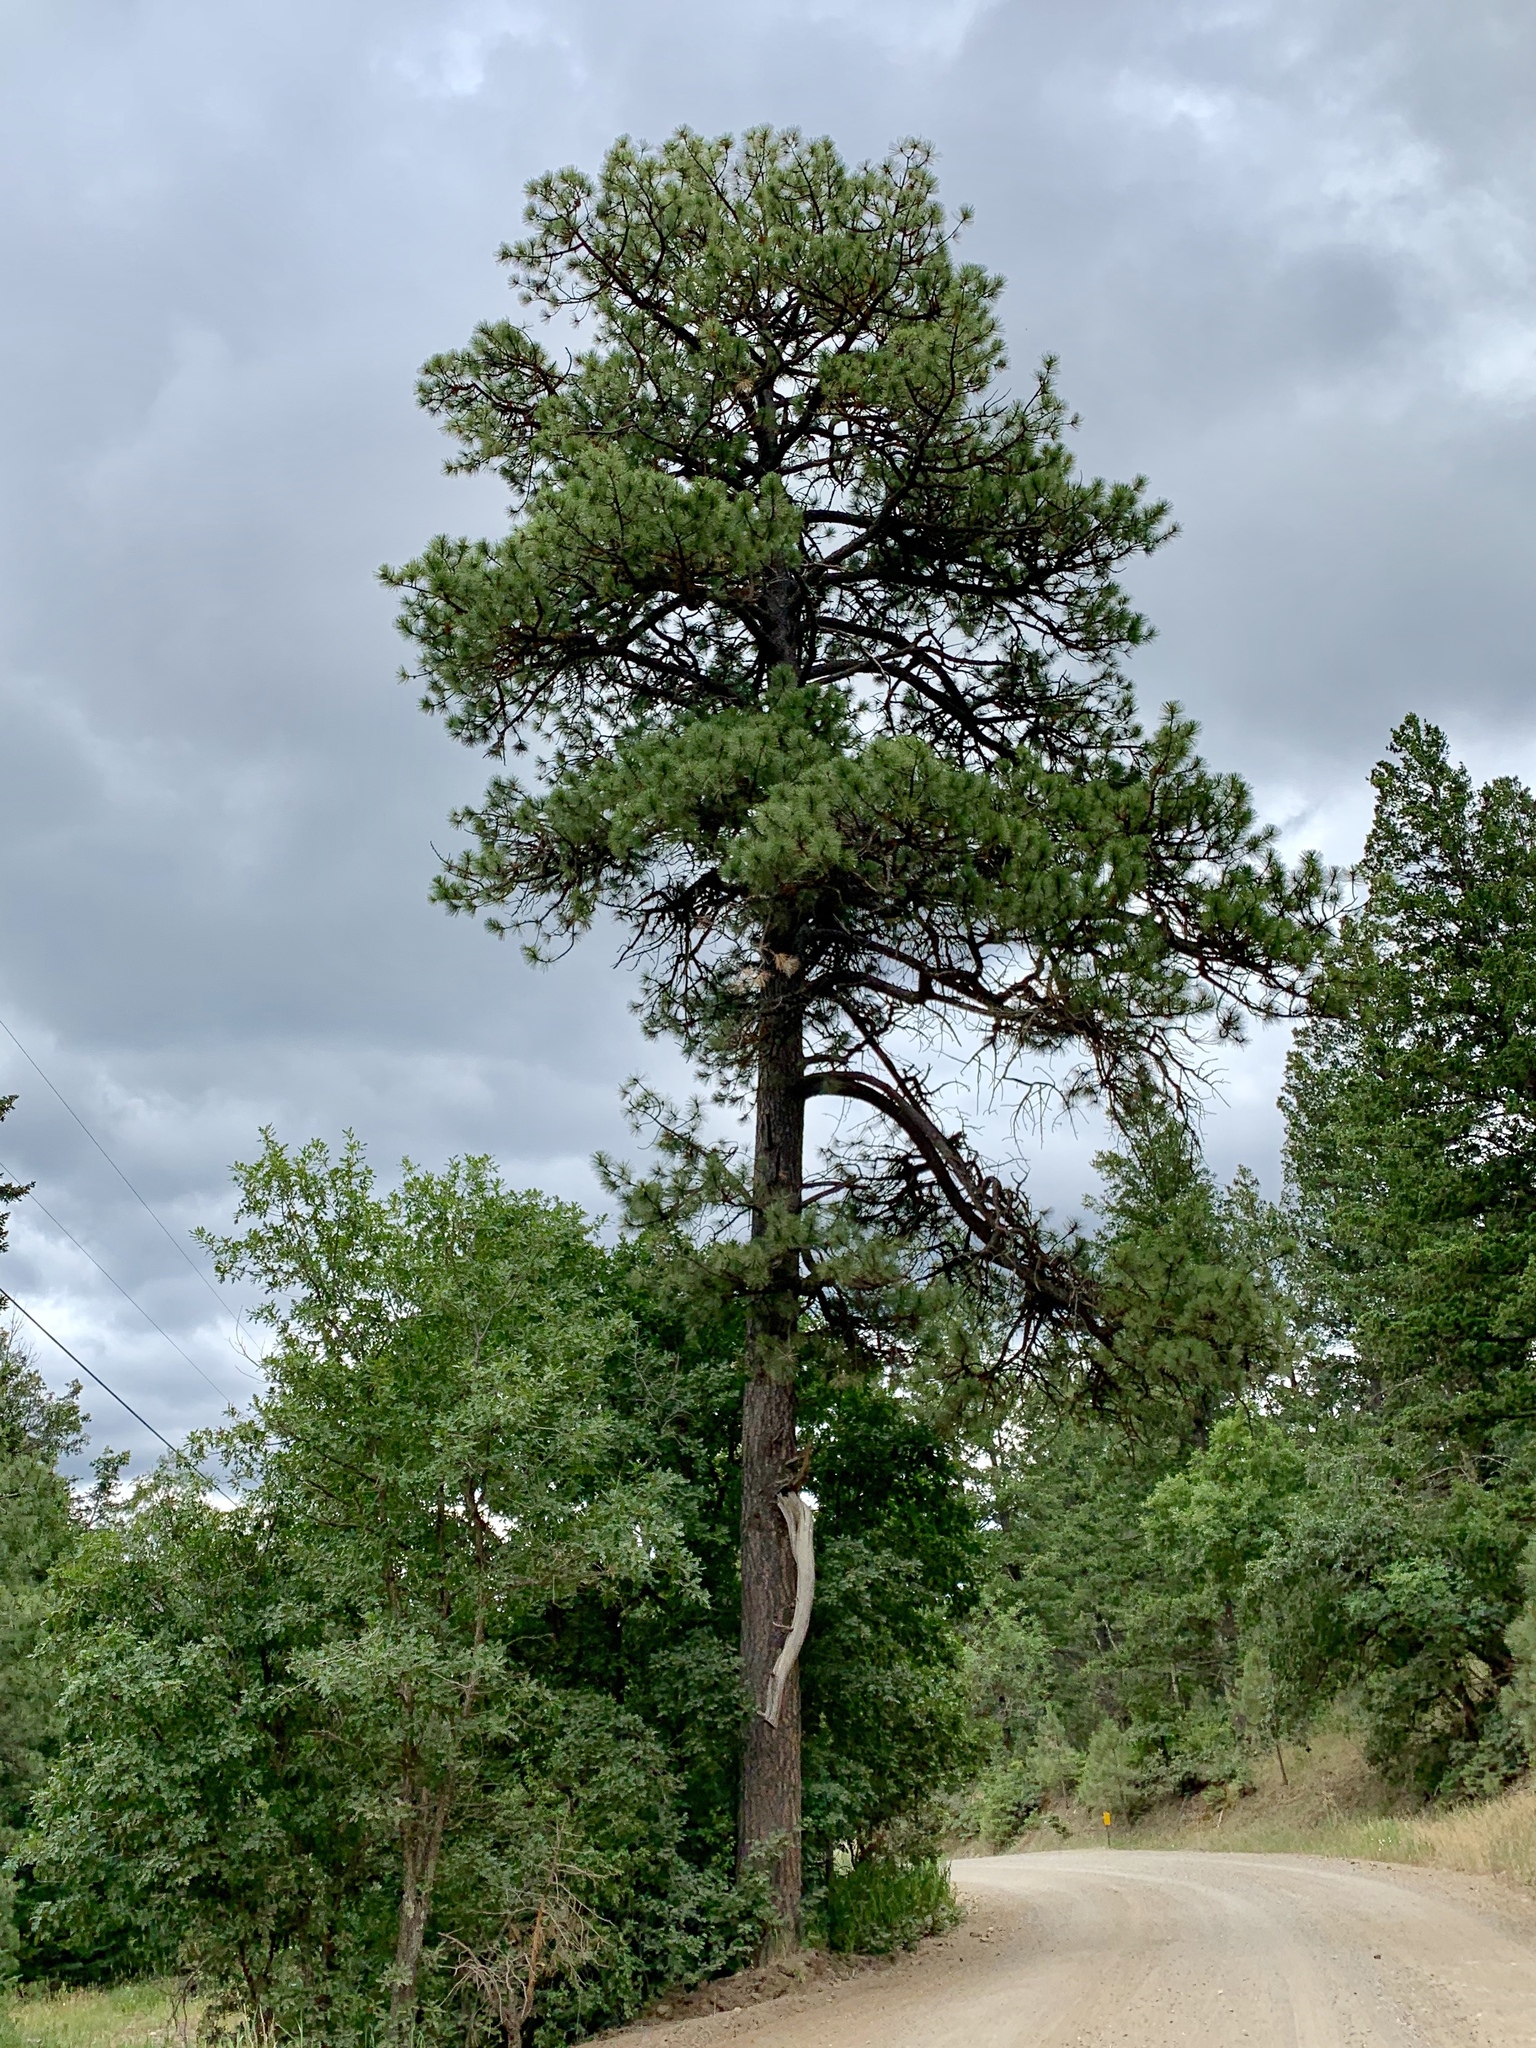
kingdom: Plantae
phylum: Tracheophyta
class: Pinopsida
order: Pinales
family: Pinaceae
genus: Pinus
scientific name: Pinus ponderosa
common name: Western yellow-pine
